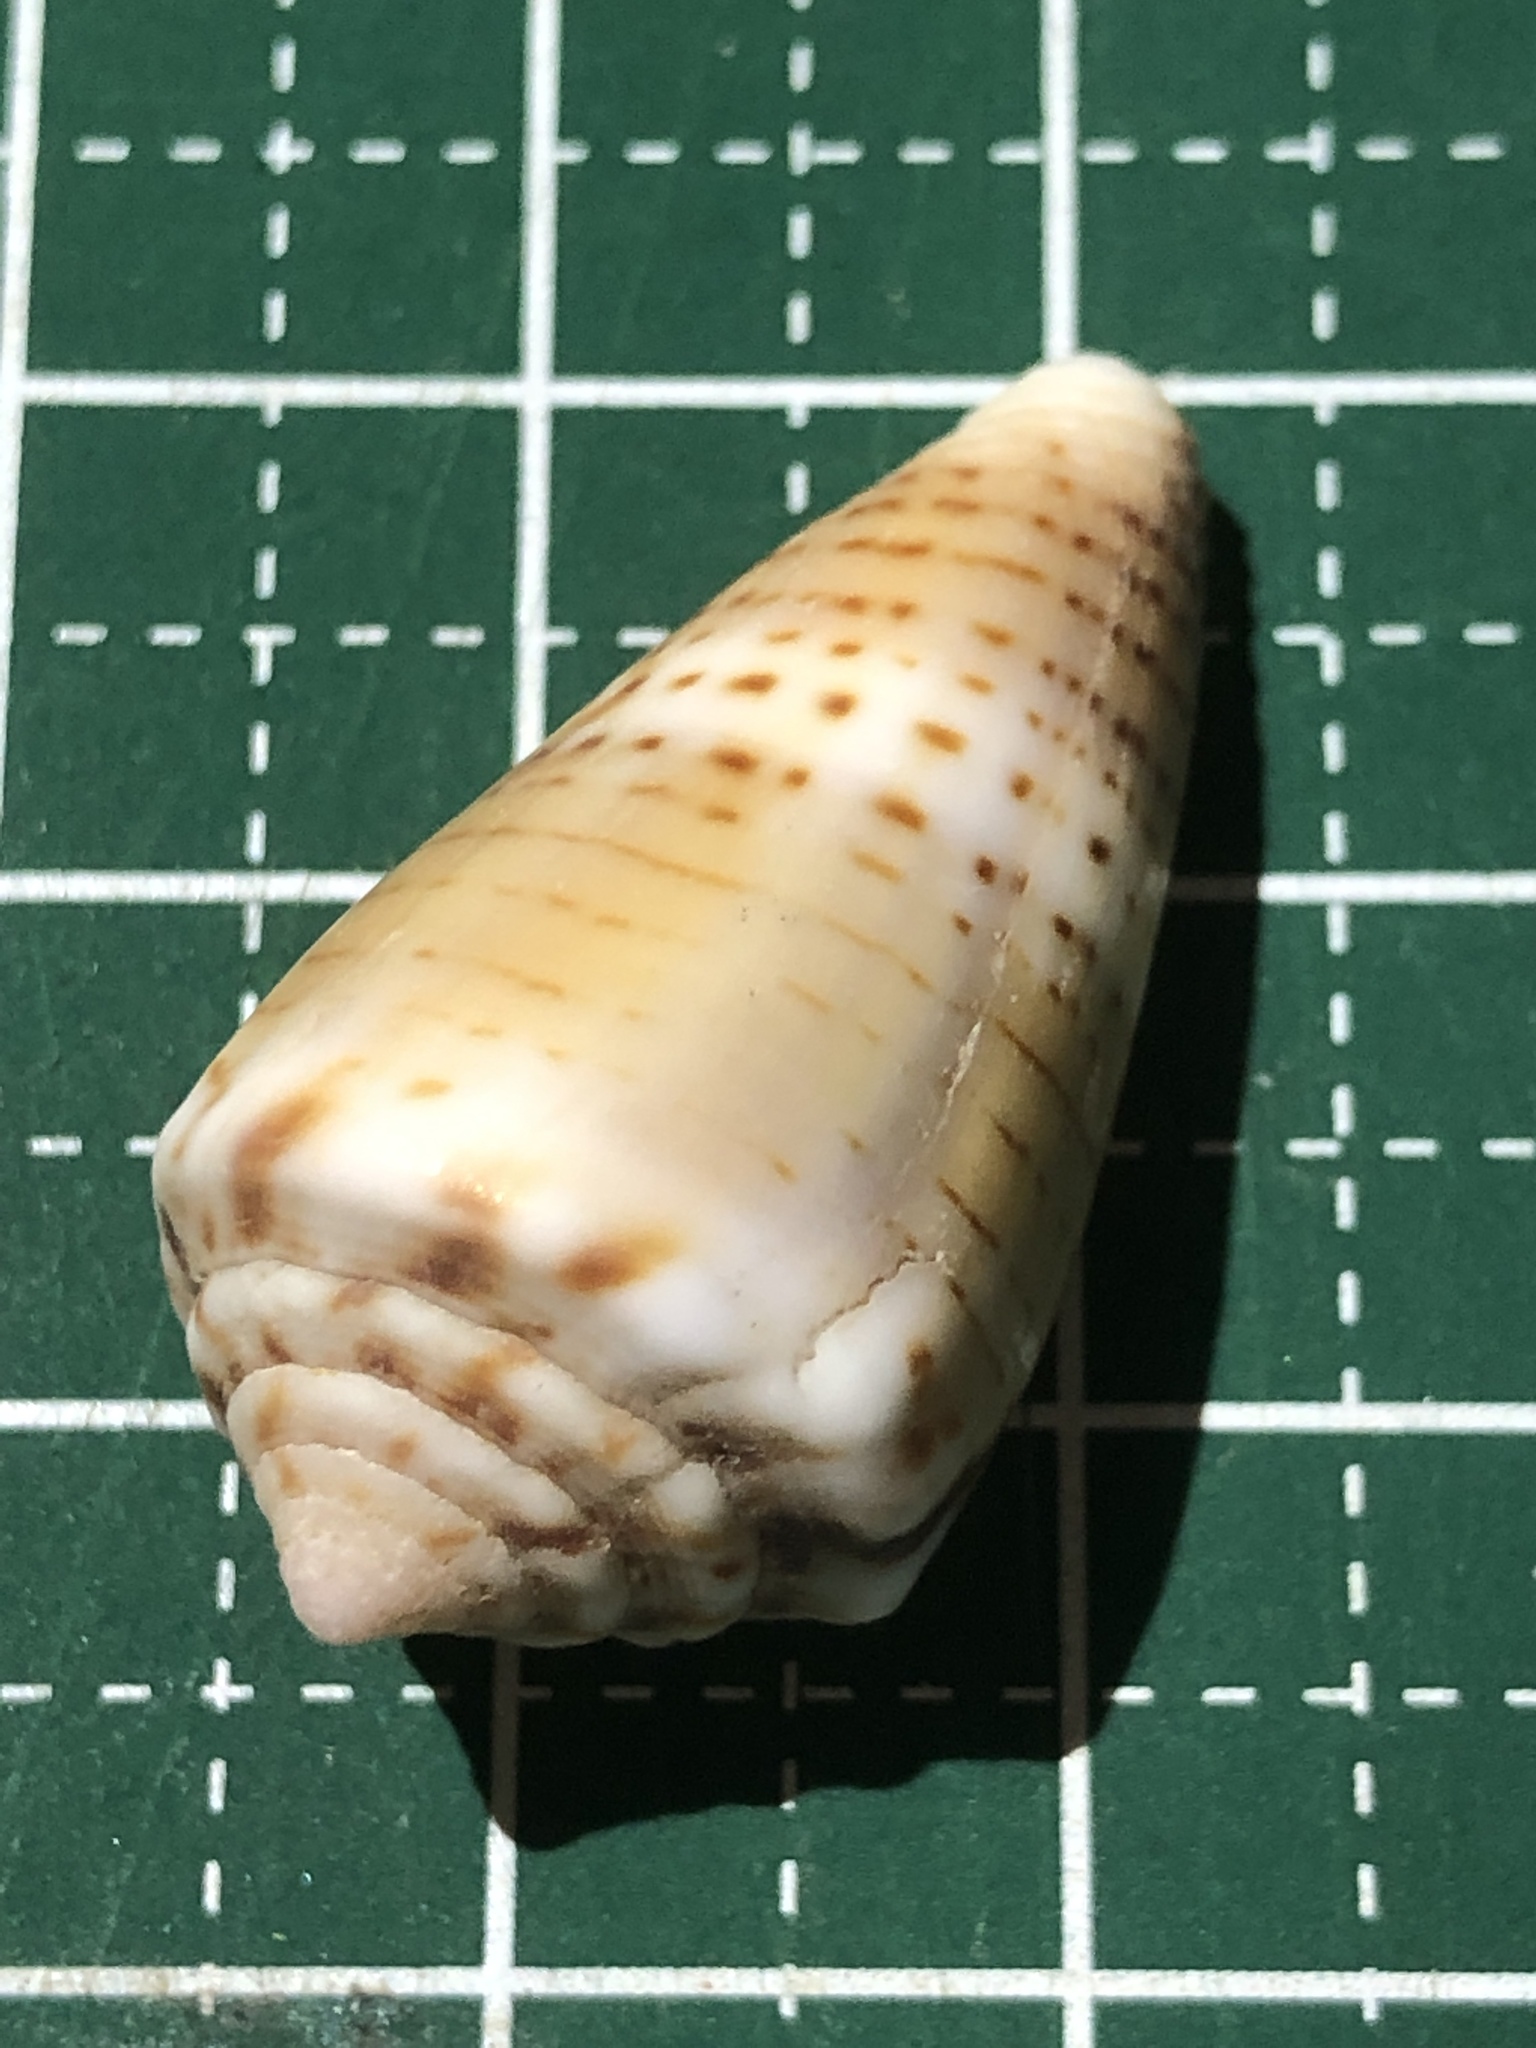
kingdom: Animalia
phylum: Mollusca
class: Gastropoda
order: Neogastropoda
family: Conidae
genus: Conus
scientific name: Conus boeticus
